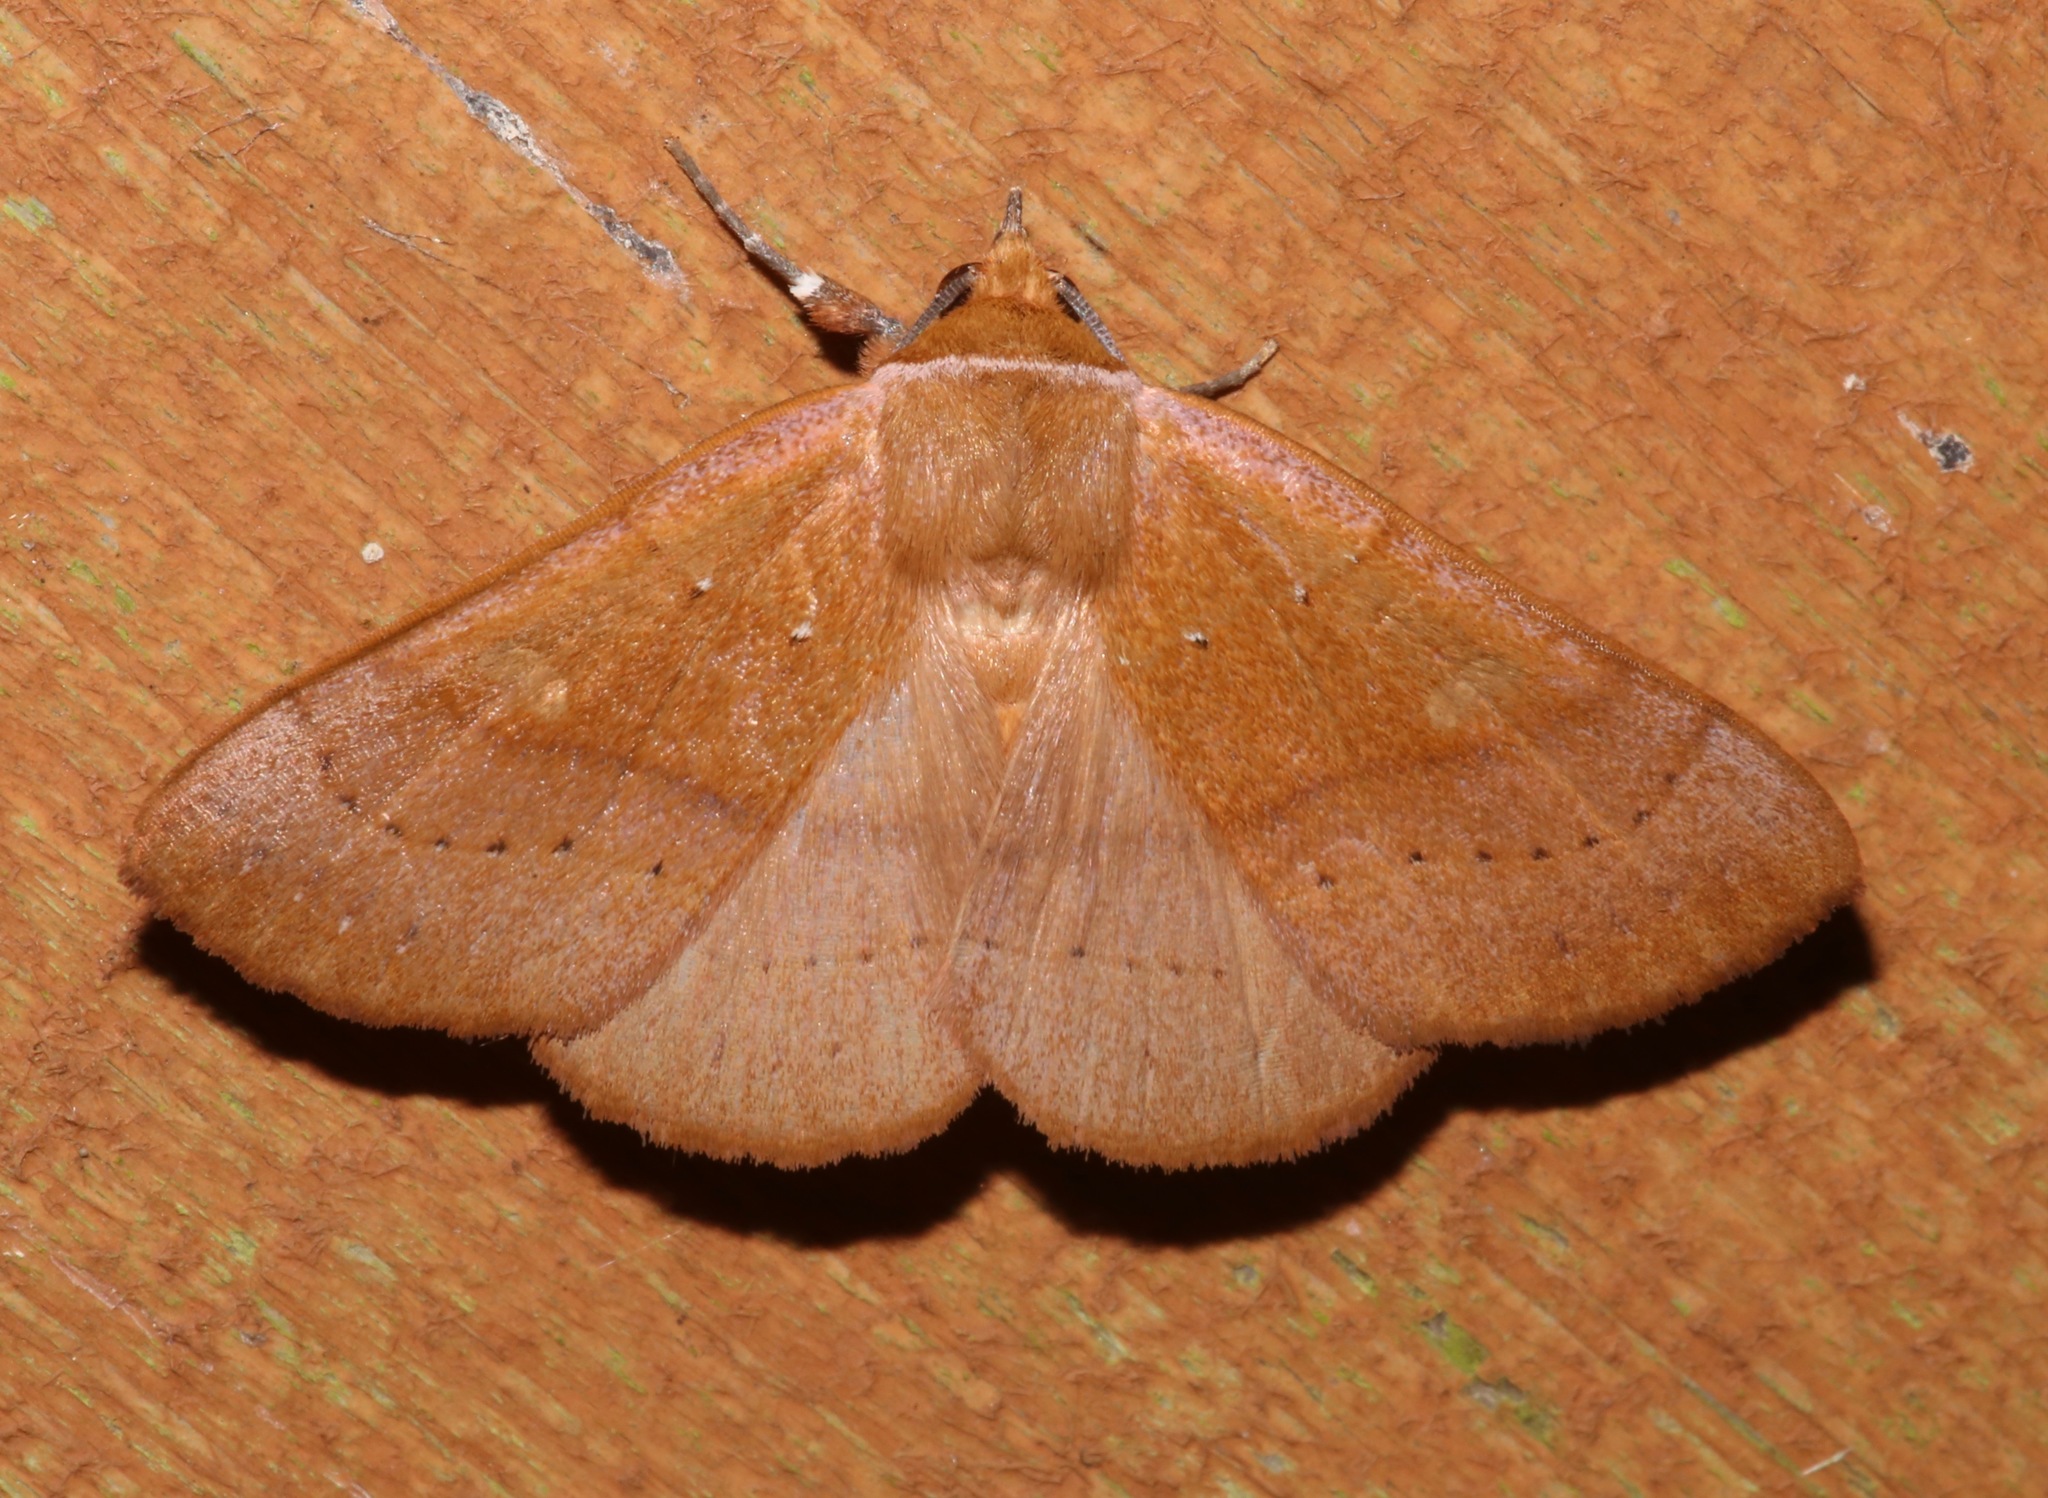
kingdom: Animalia
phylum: Arthropoda
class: Insecta
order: Lepidoptera
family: Erebidae
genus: Panopoda
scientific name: Panopoda repanda
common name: Orange panopoda
